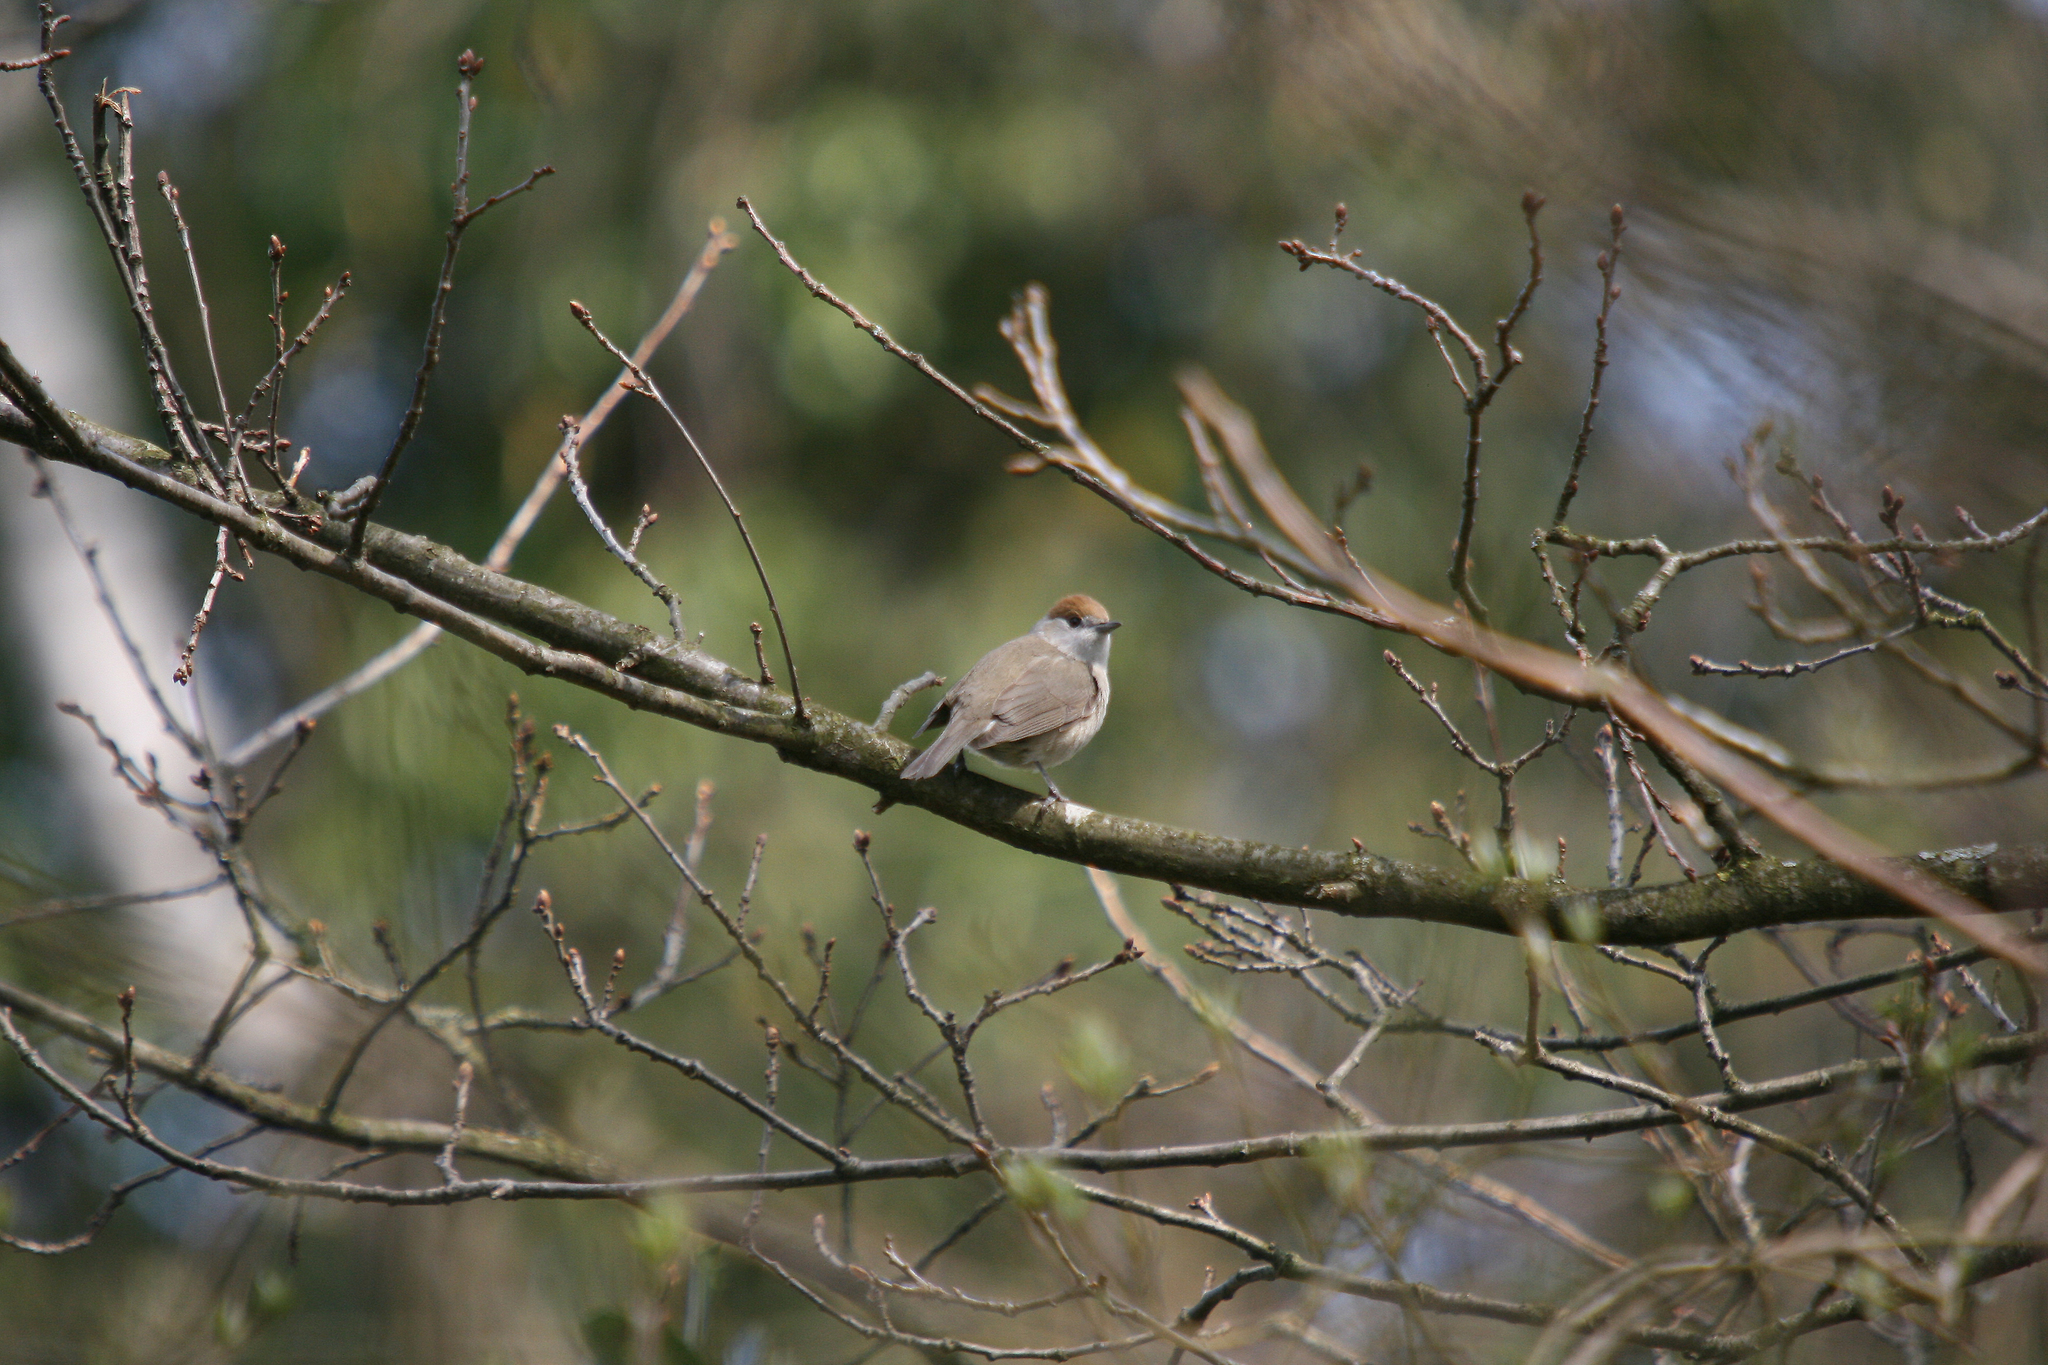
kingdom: Animalia
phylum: Chordata
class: Aves
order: Passeriformes
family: Sylviidae
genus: Sylvia
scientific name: Sylvia atricapilla
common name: Eurasian blackcap
